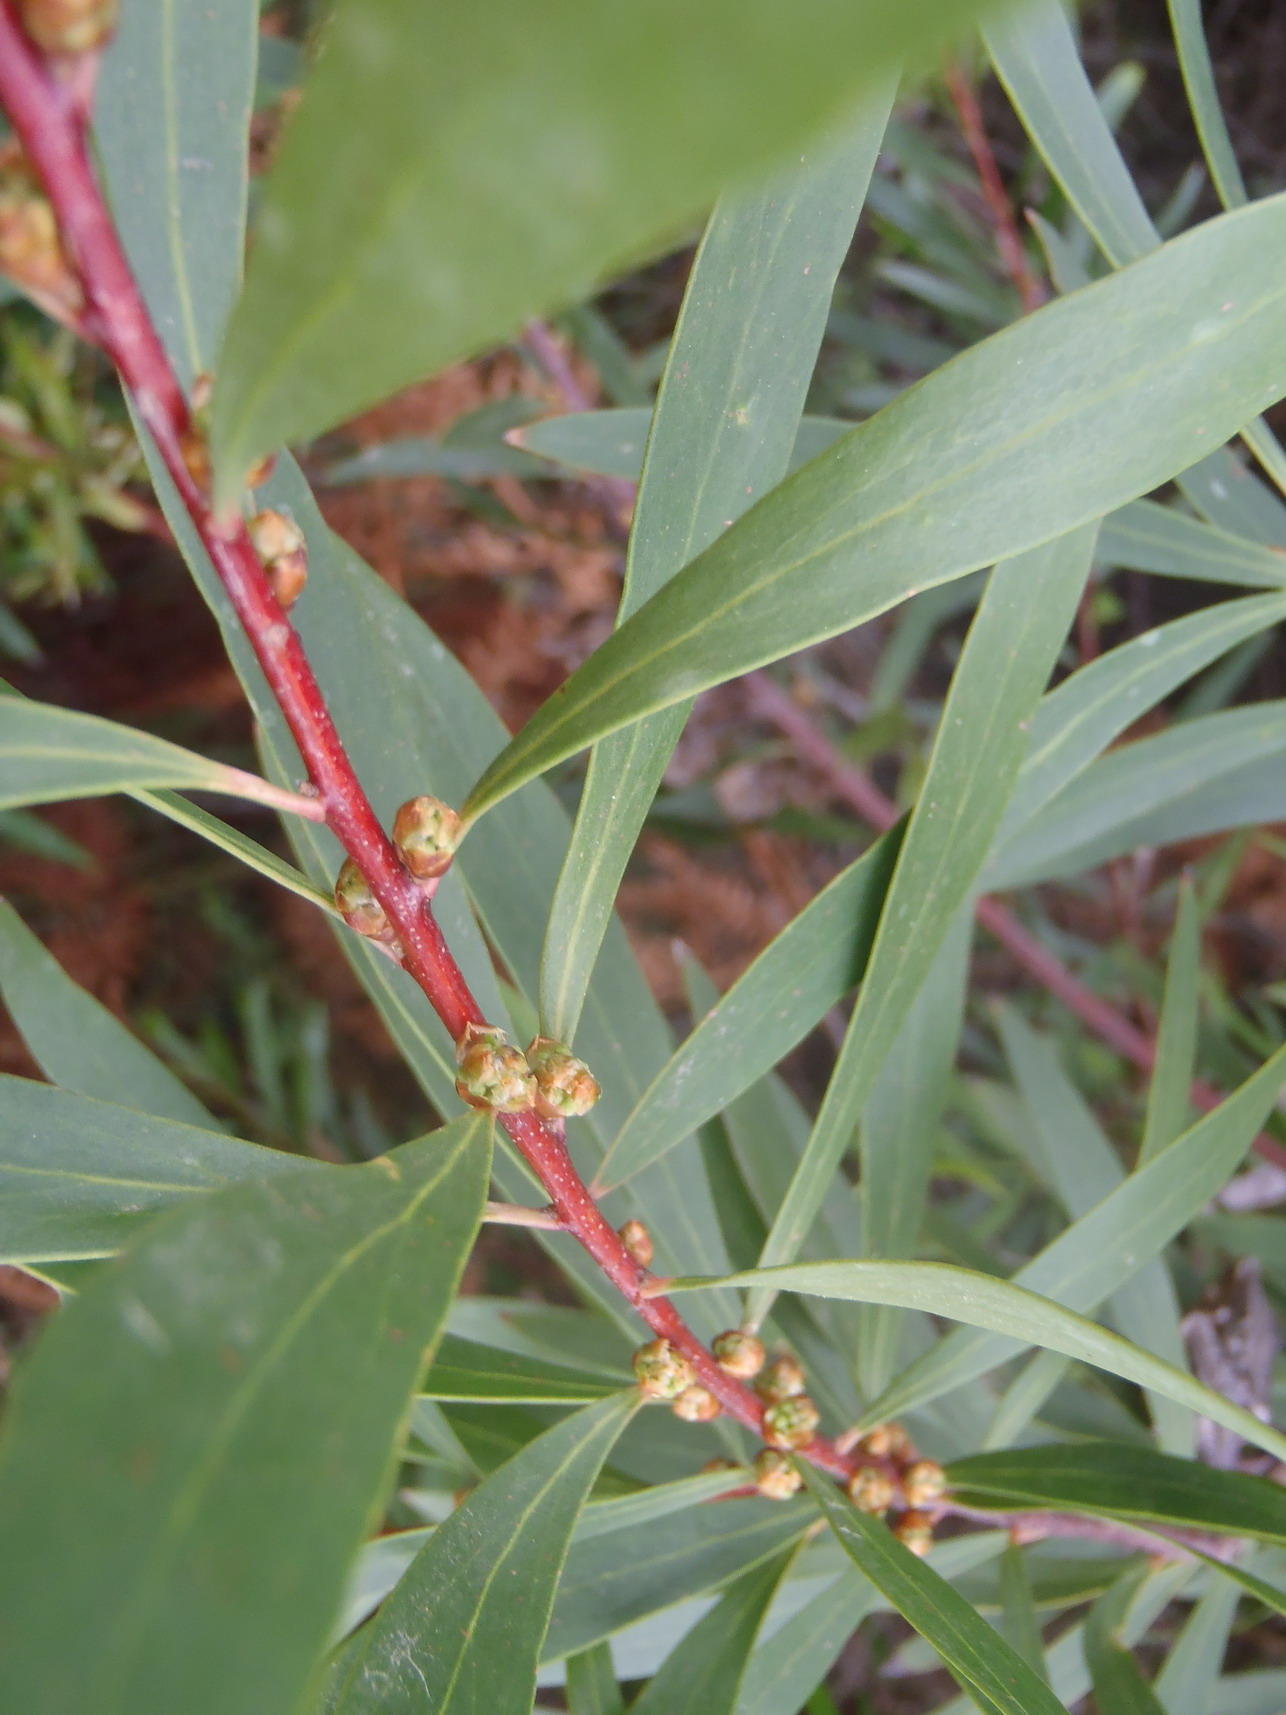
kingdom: Plantae
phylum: Tracheophyta
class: Magnoliopsida
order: Proteales
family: Proteaceae
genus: Hakea
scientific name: Hakea salicifolia
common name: Willow hakea
